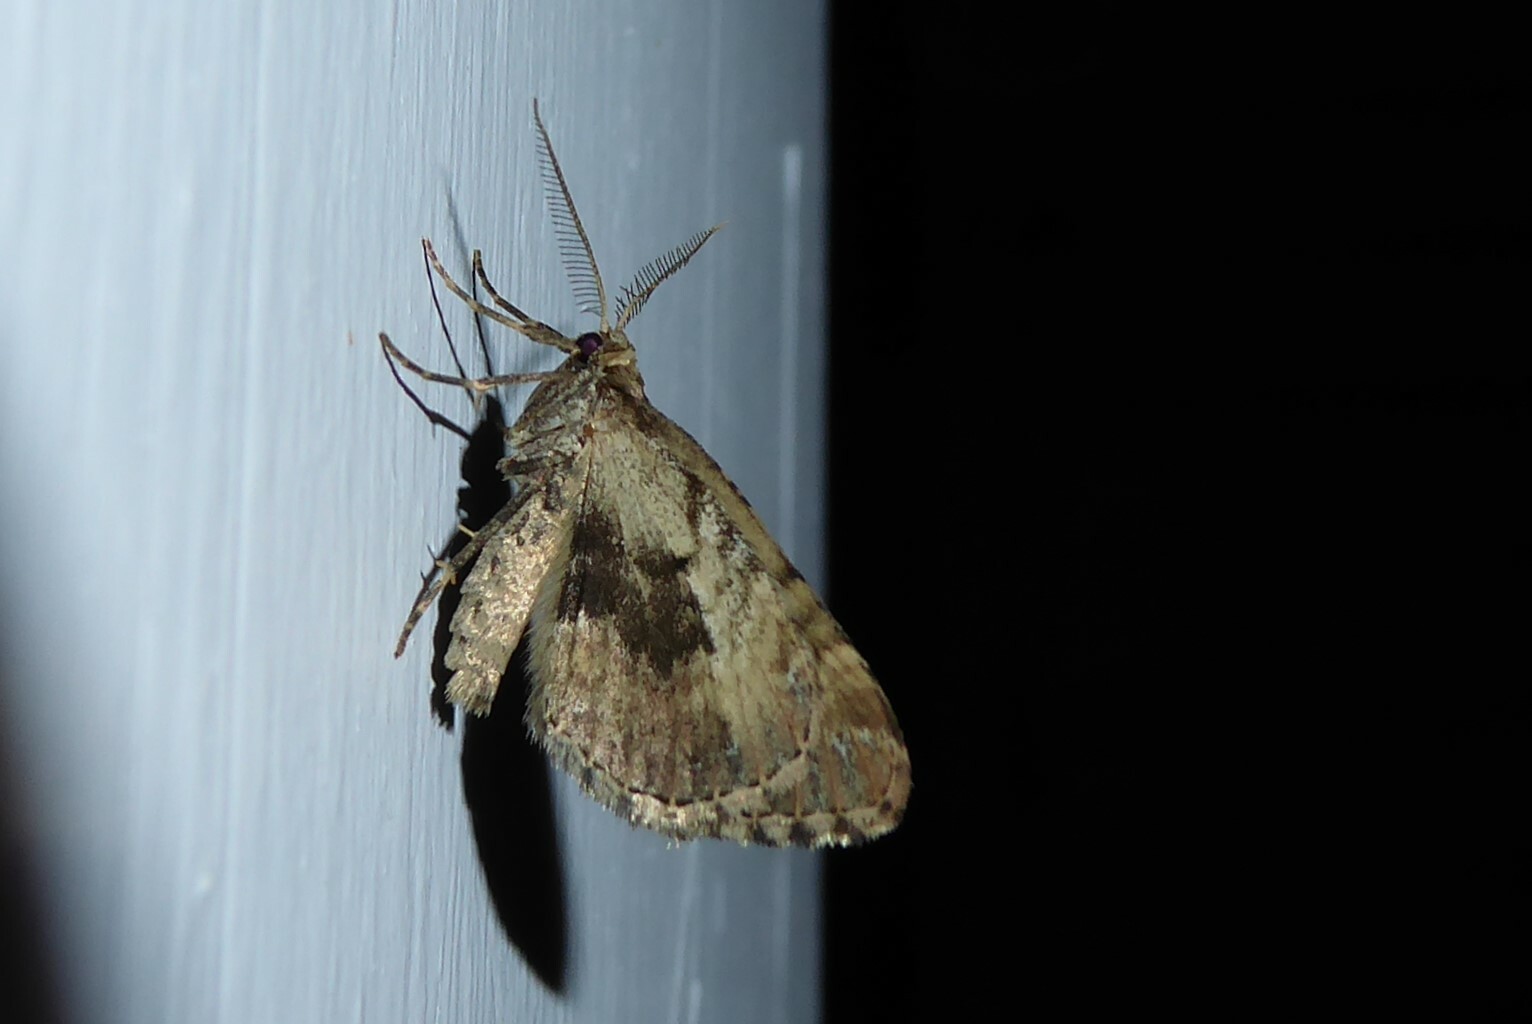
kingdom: Animalia
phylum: Arthropoda
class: Insecta
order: Lepidoptera
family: Geometridae
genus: Asaphodes
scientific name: Asaphodes aegrota
